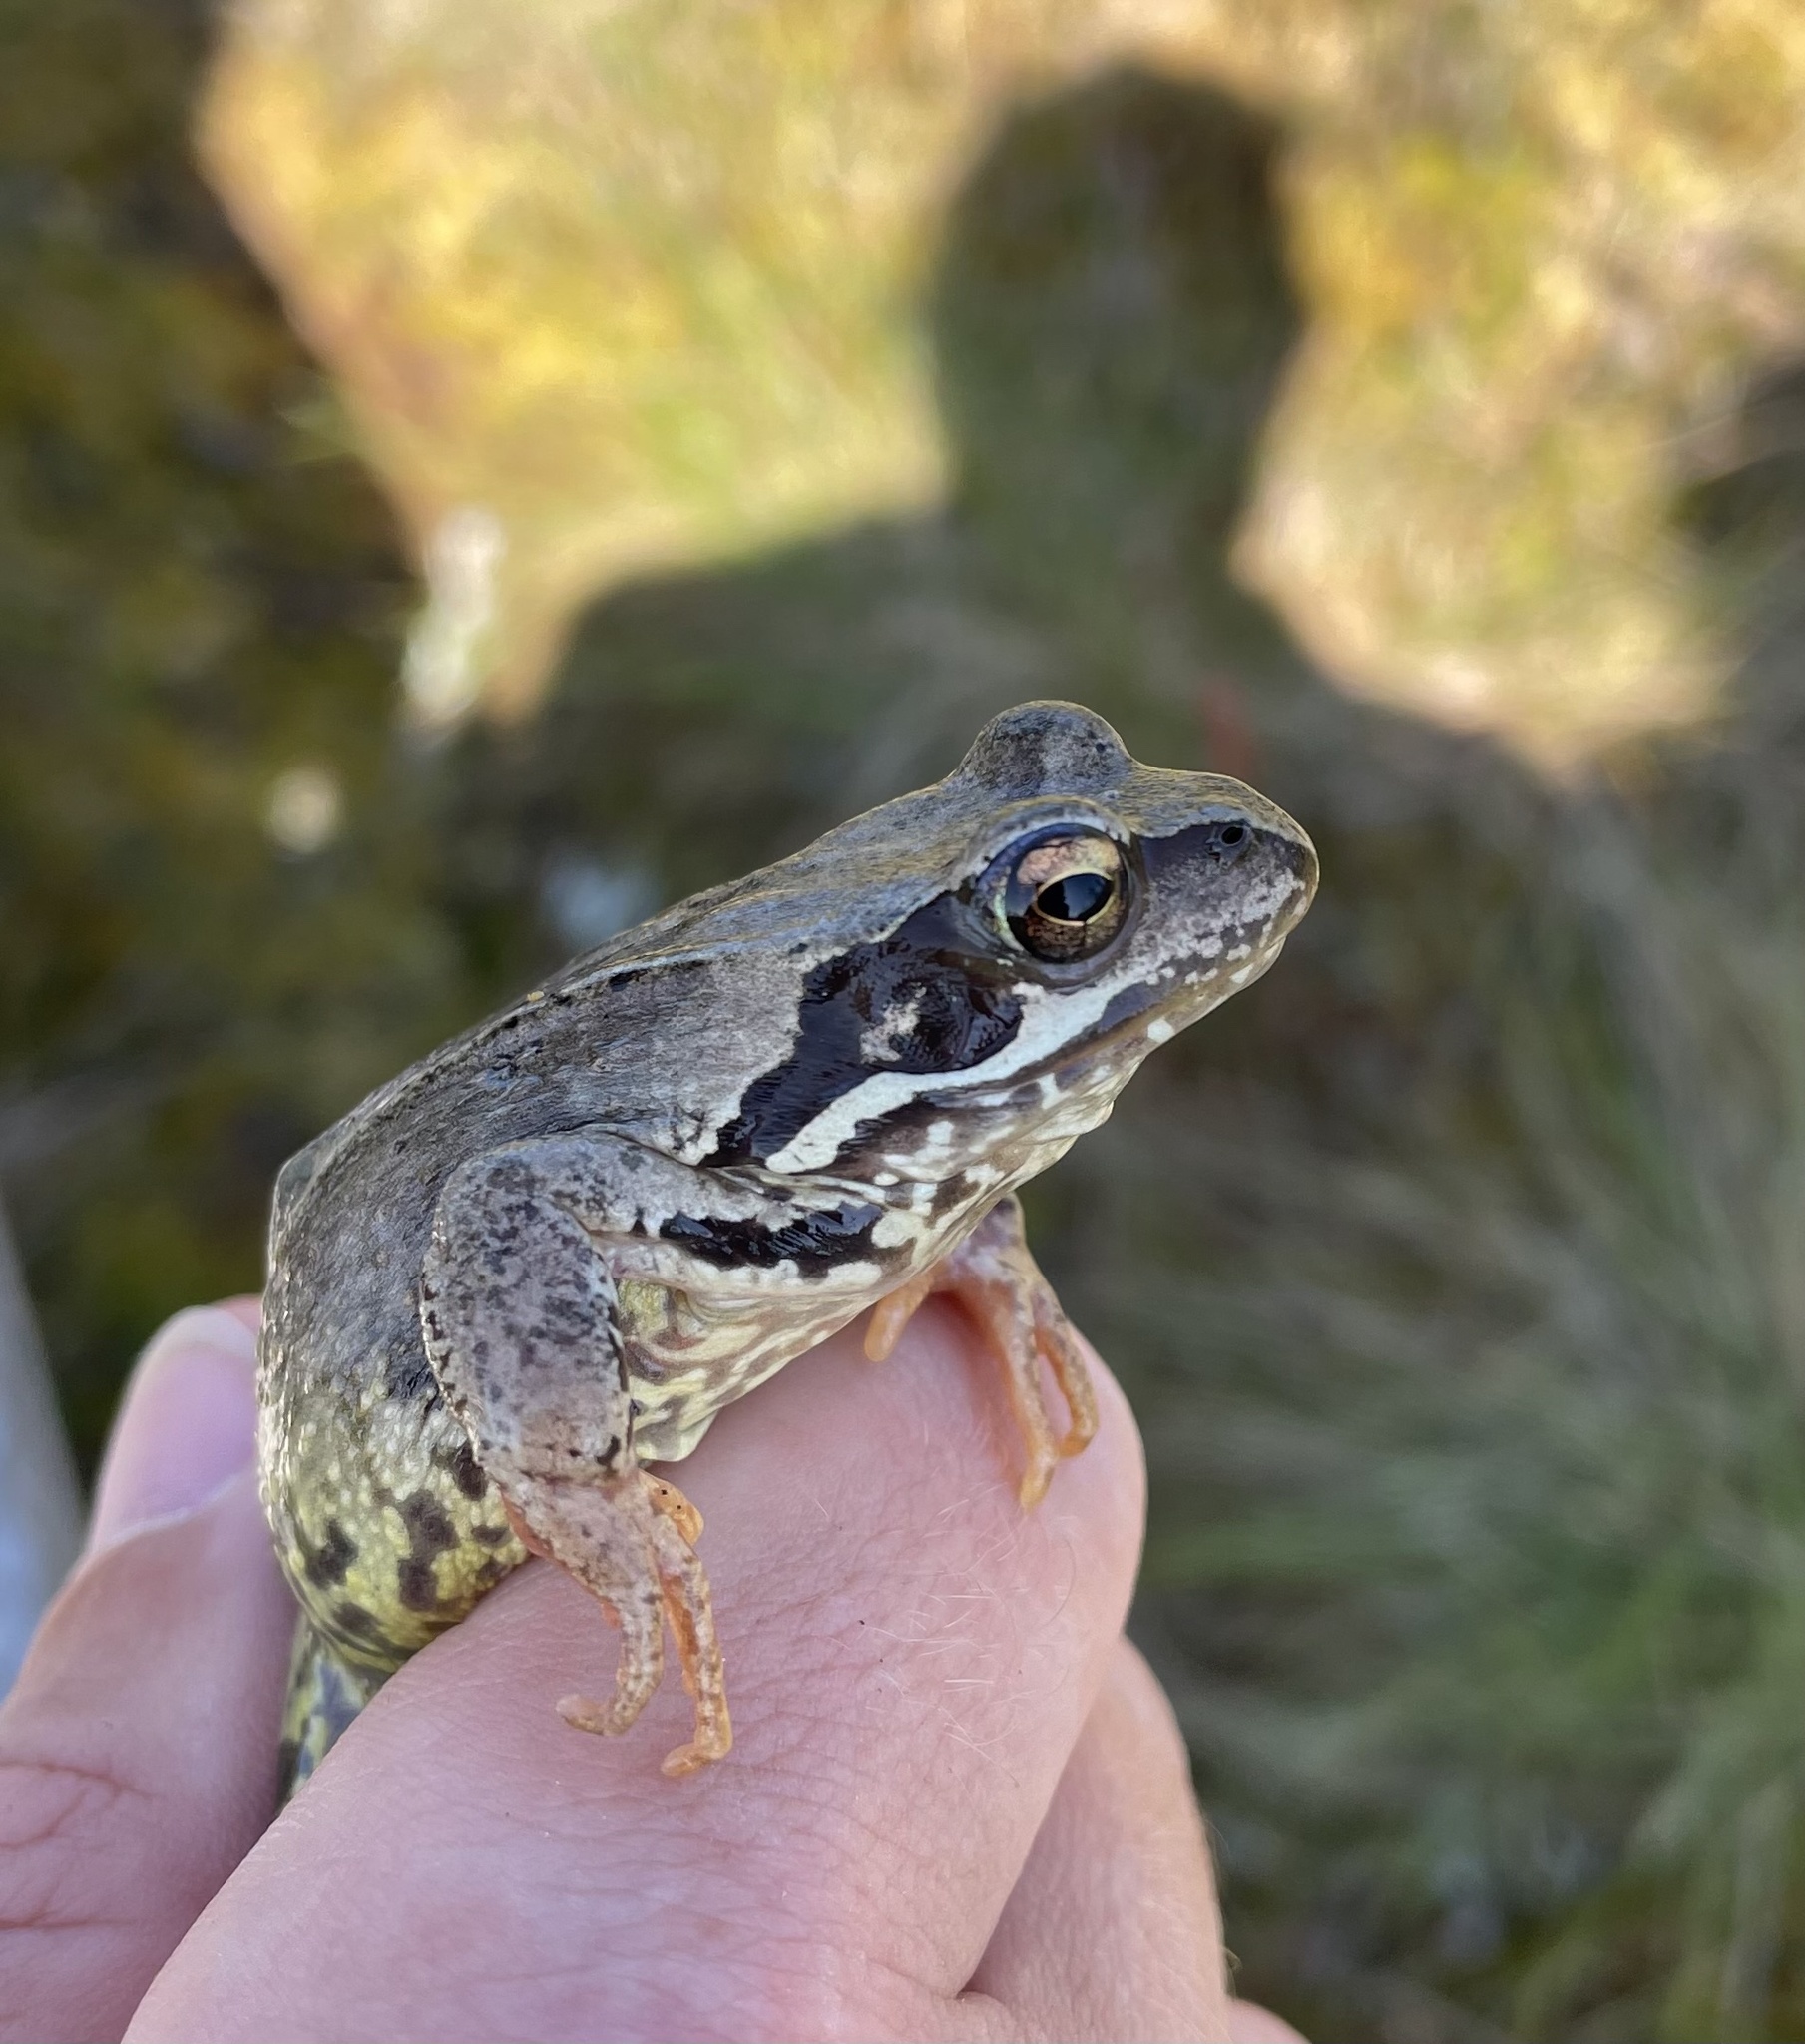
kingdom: Animalia
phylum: Chordata
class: Amphibia
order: Anura
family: Ranidae
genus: Rana
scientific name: Rana temporaria
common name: Common frog
